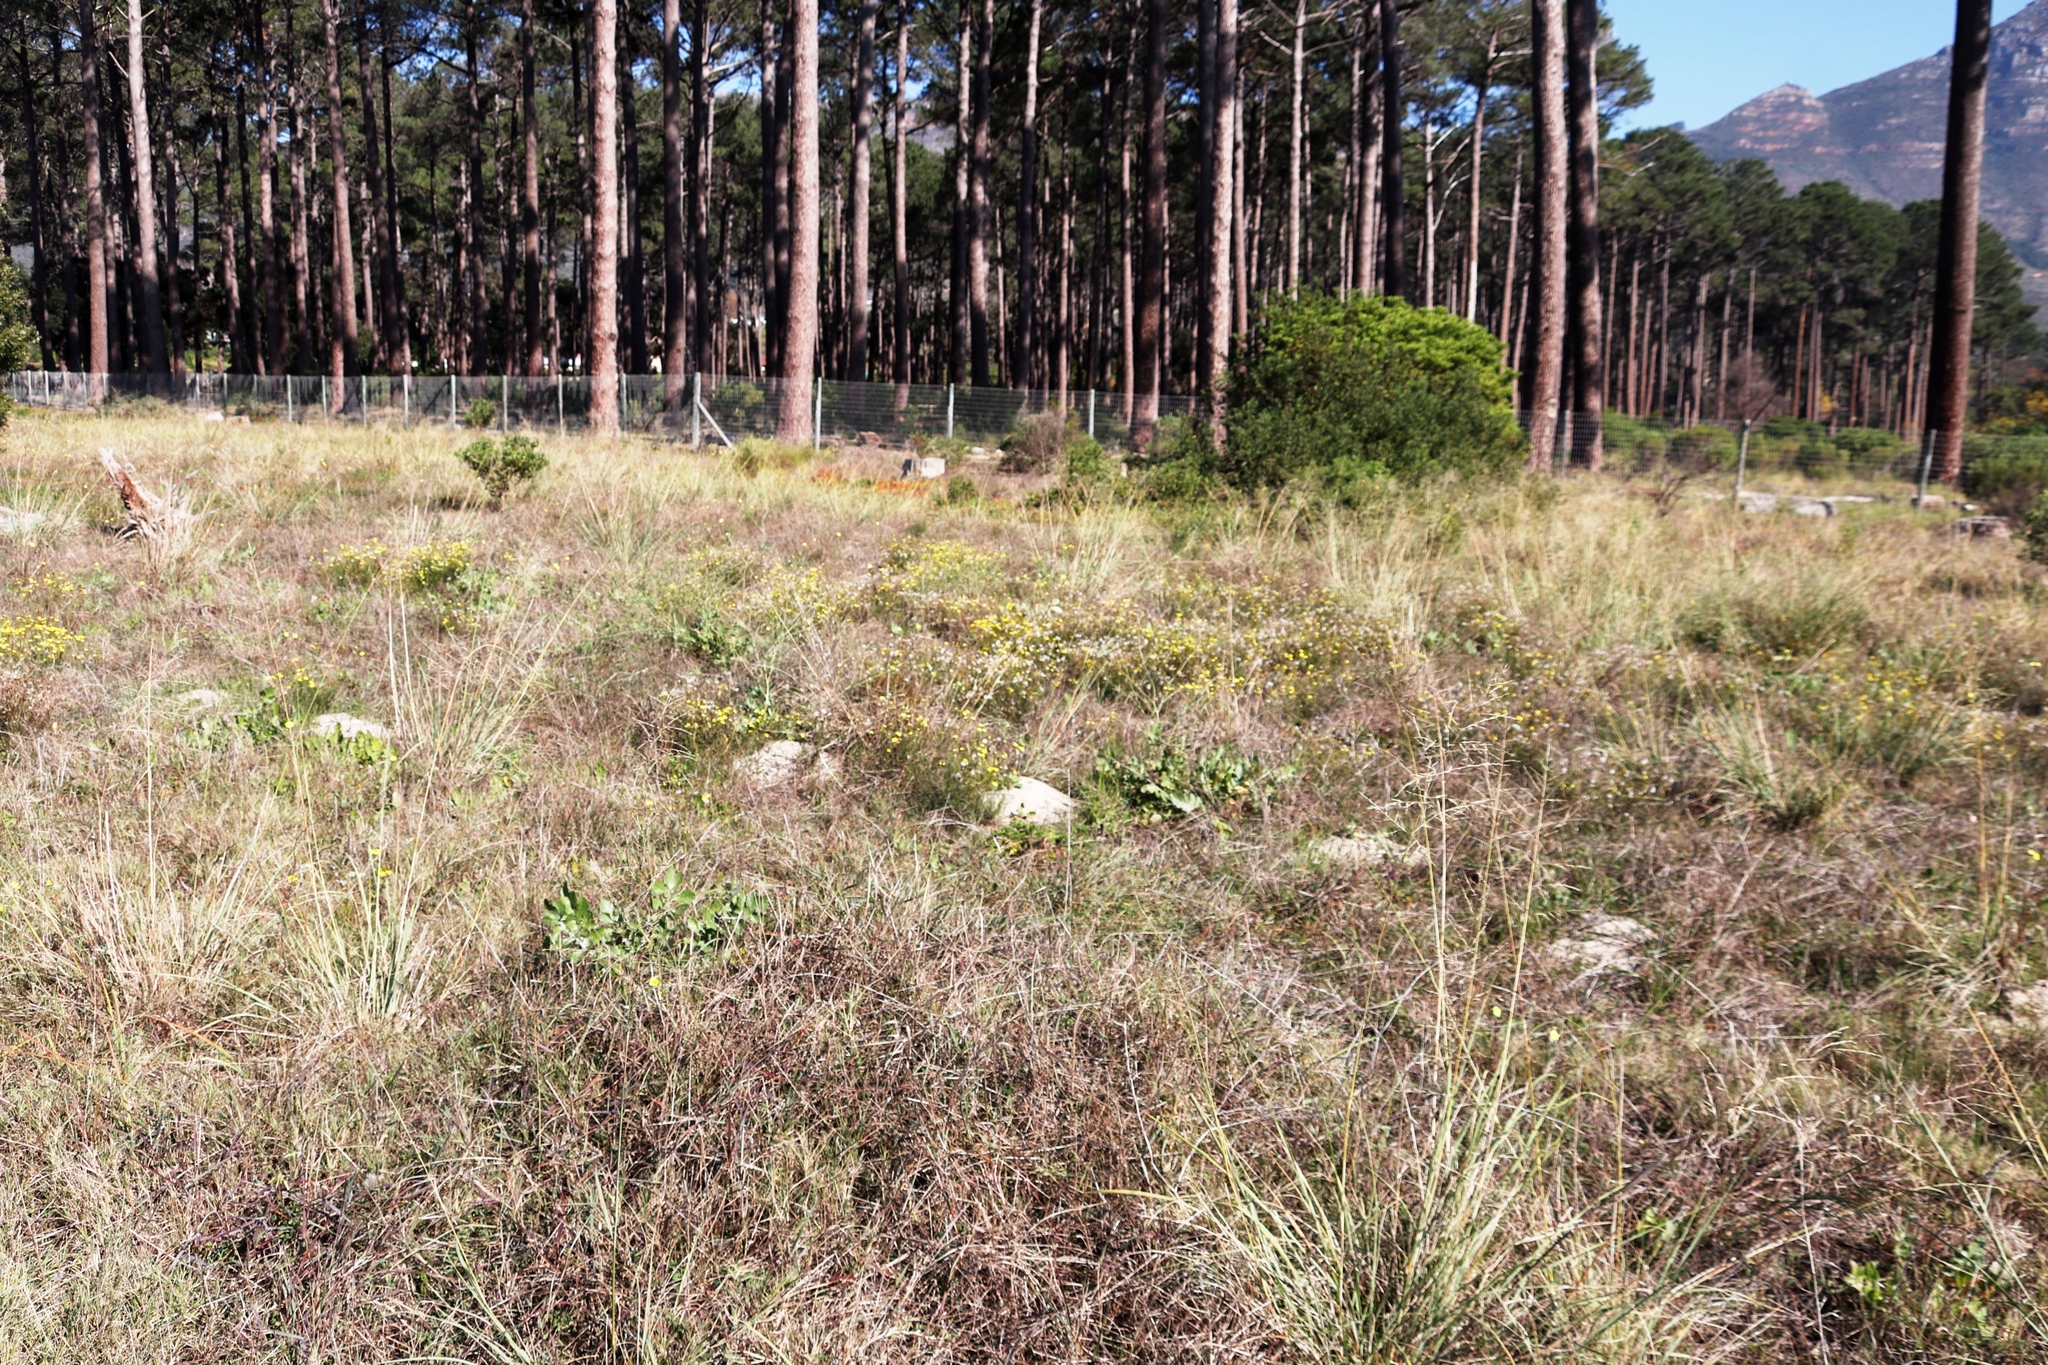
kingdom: Animalia
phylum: Chordata
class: Mammalia
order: Rodentia
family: Bathyergidae
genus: Bathyergus
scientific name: Bathyergus suillus
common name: Cape dune mole rat
